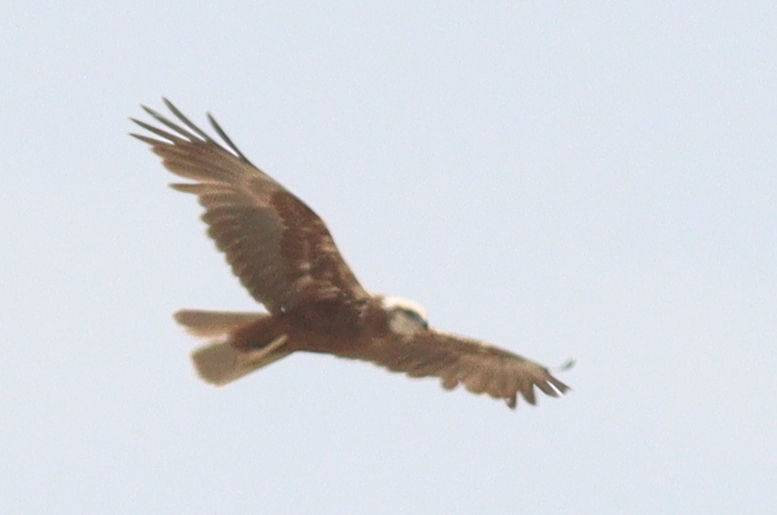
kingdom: Animalia
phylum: Chordata
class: Aves
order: Accipitriformes
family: Accipitridae
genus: Circus
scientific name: Circus aeruginosus
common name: Western marsh harrier
